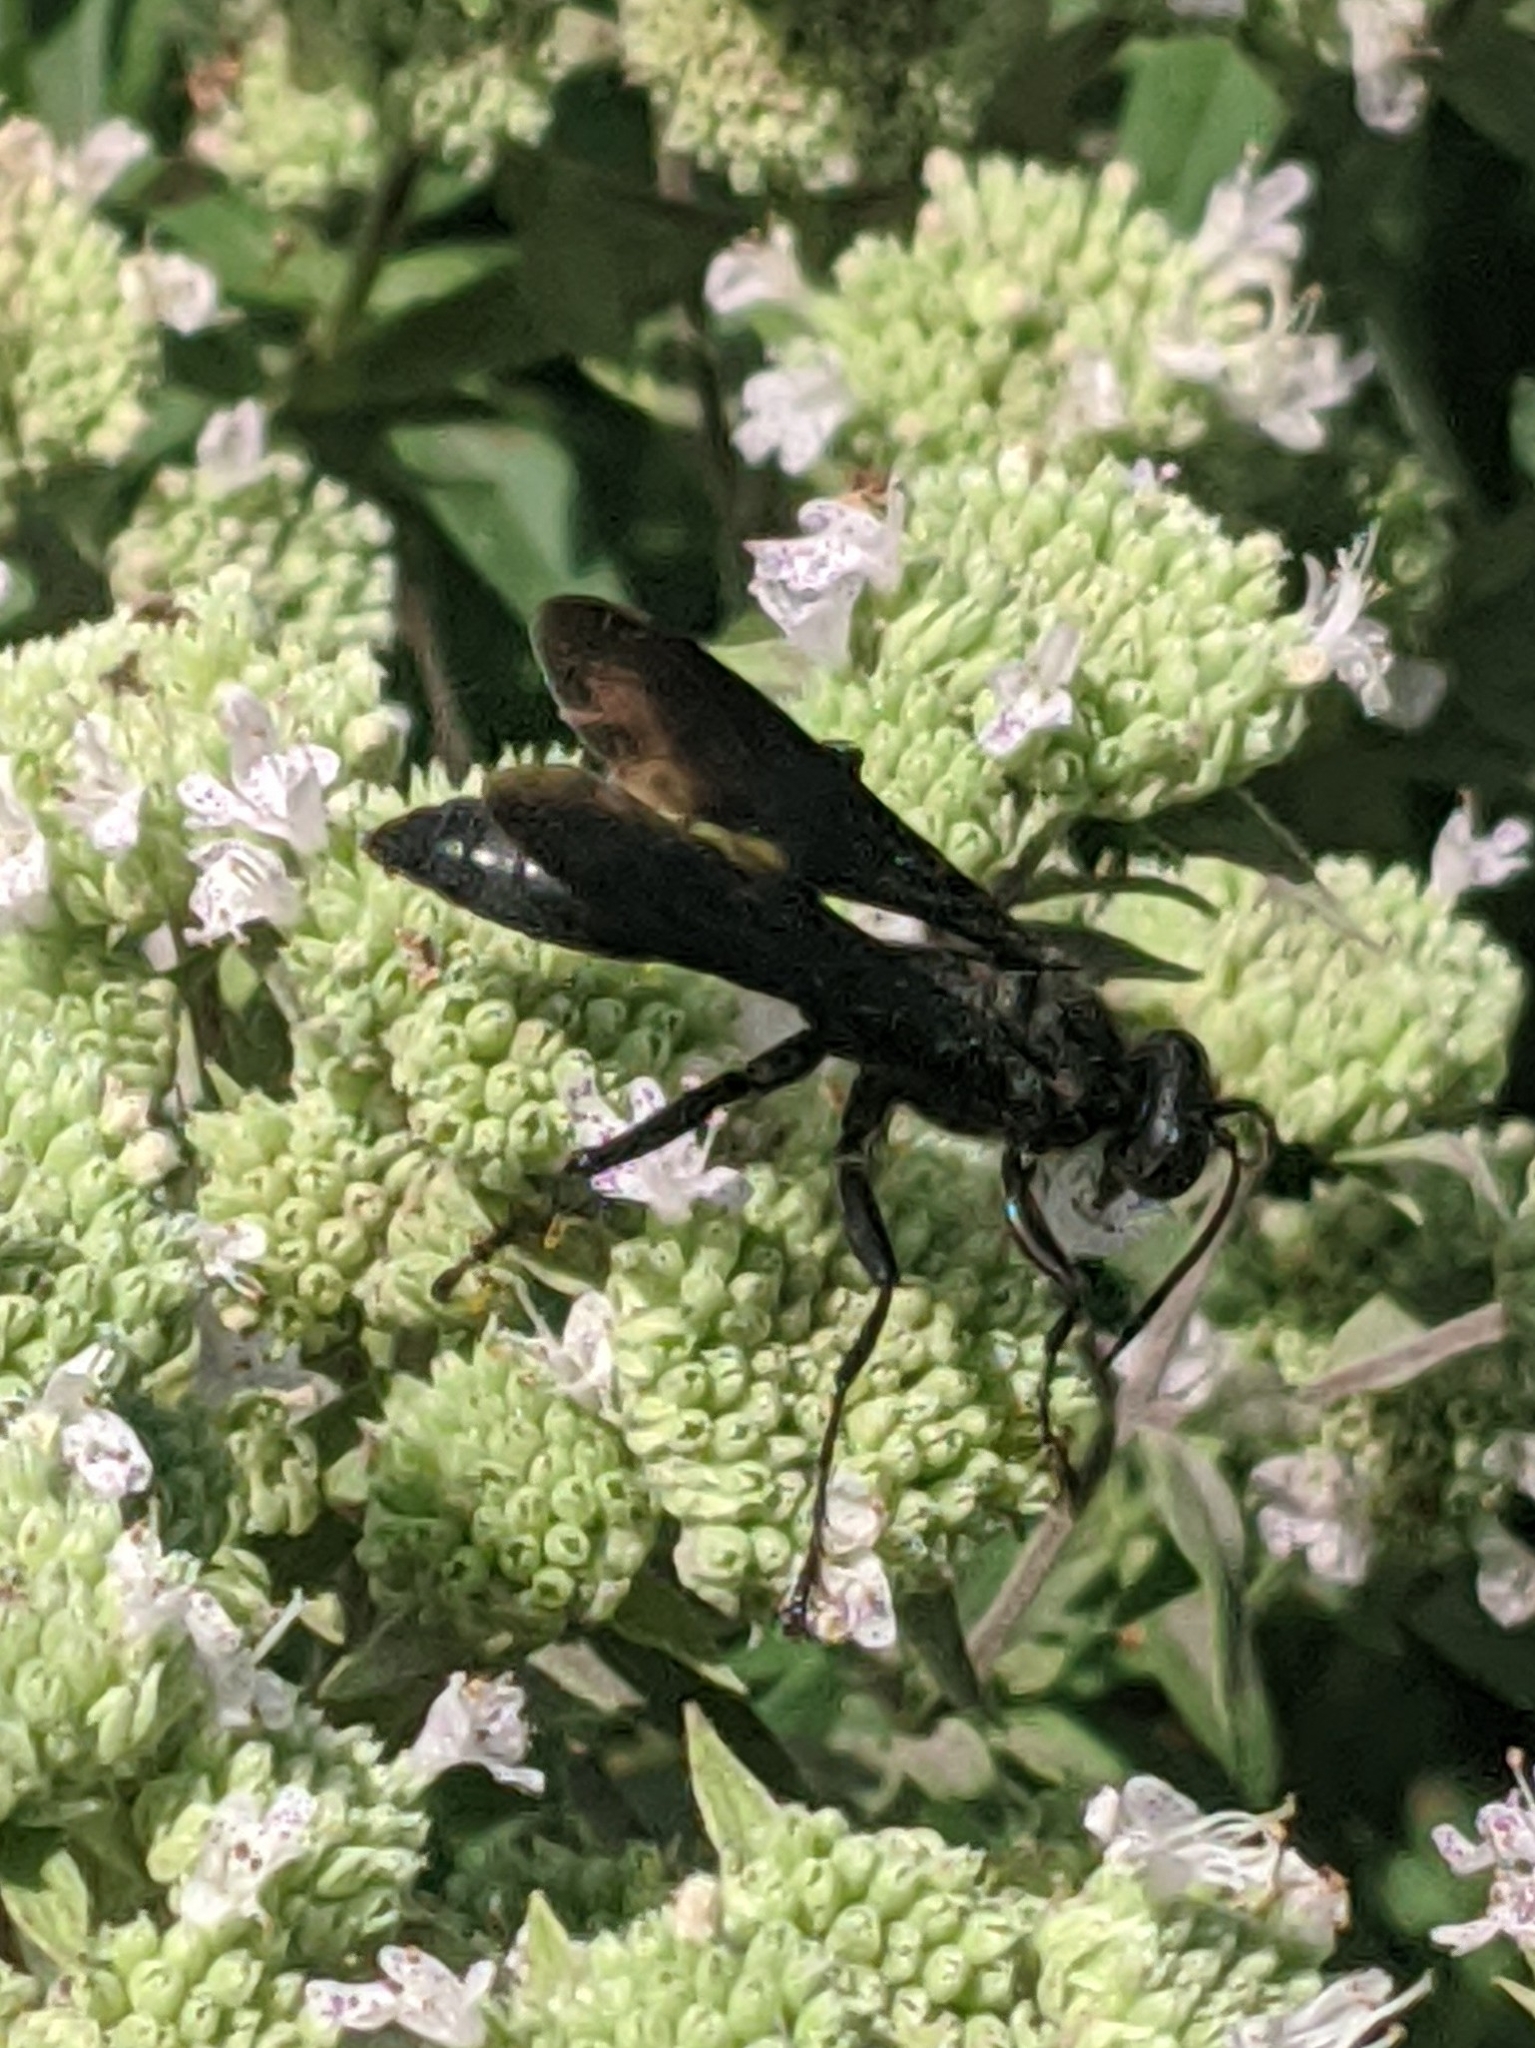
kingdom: Animalia
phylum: Arthropoda
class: Insecta
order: Hymenoptera
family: Sphecidae
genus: Sphex
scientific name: Sphex pensylvanicus
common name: Great black digger wasp
